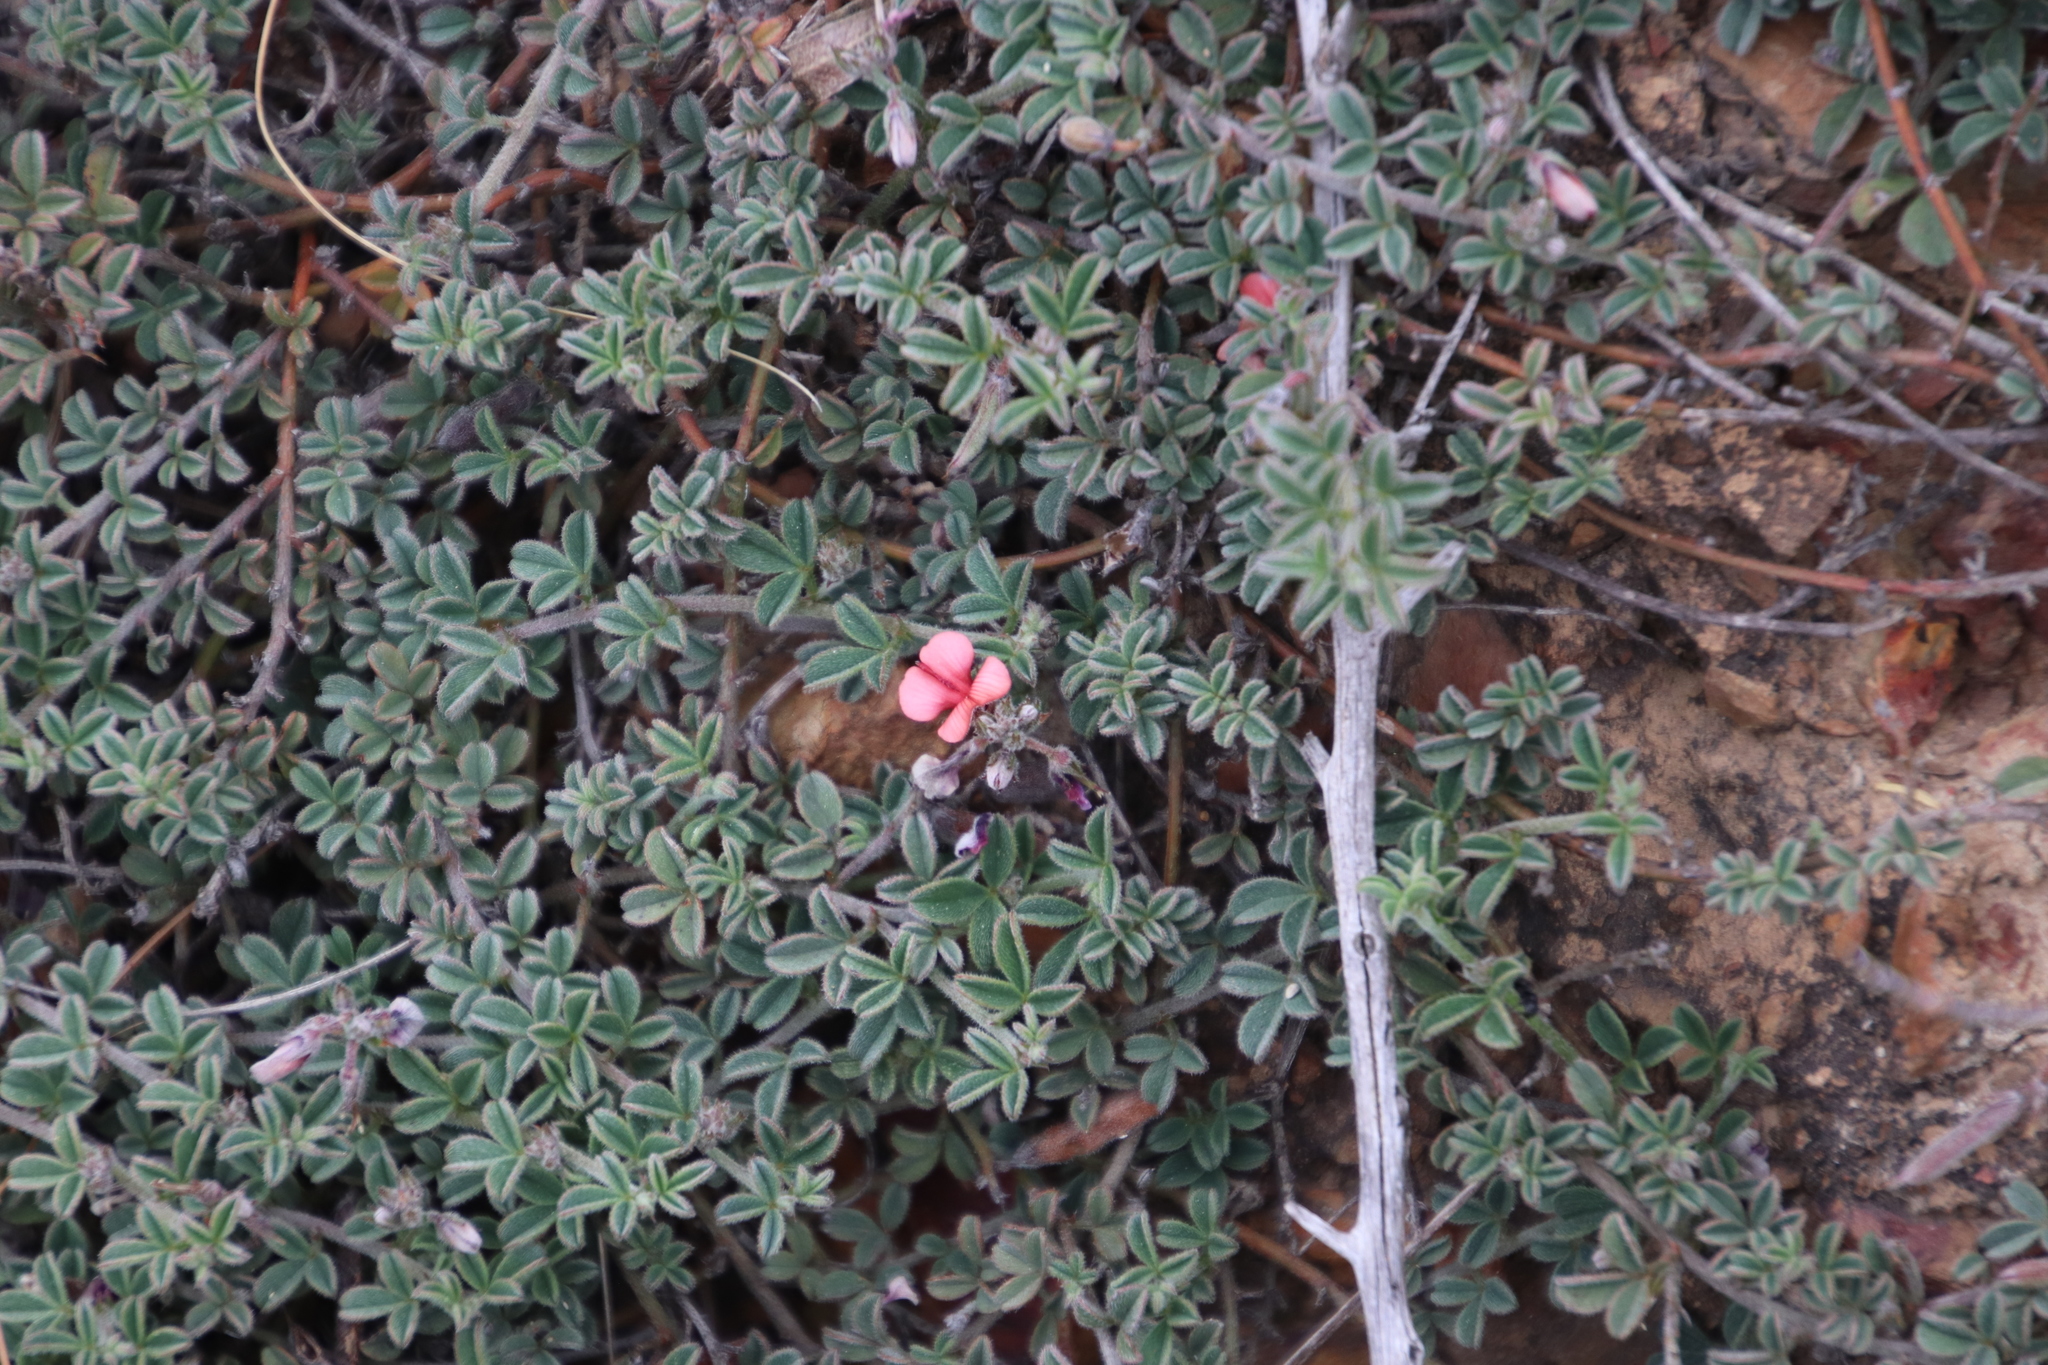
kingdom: Plantae
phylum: Tracheophyta
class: Magnoliopsida
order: Fabales
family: Fabaceae
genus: Indigofera
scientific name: Indigofera priorii
